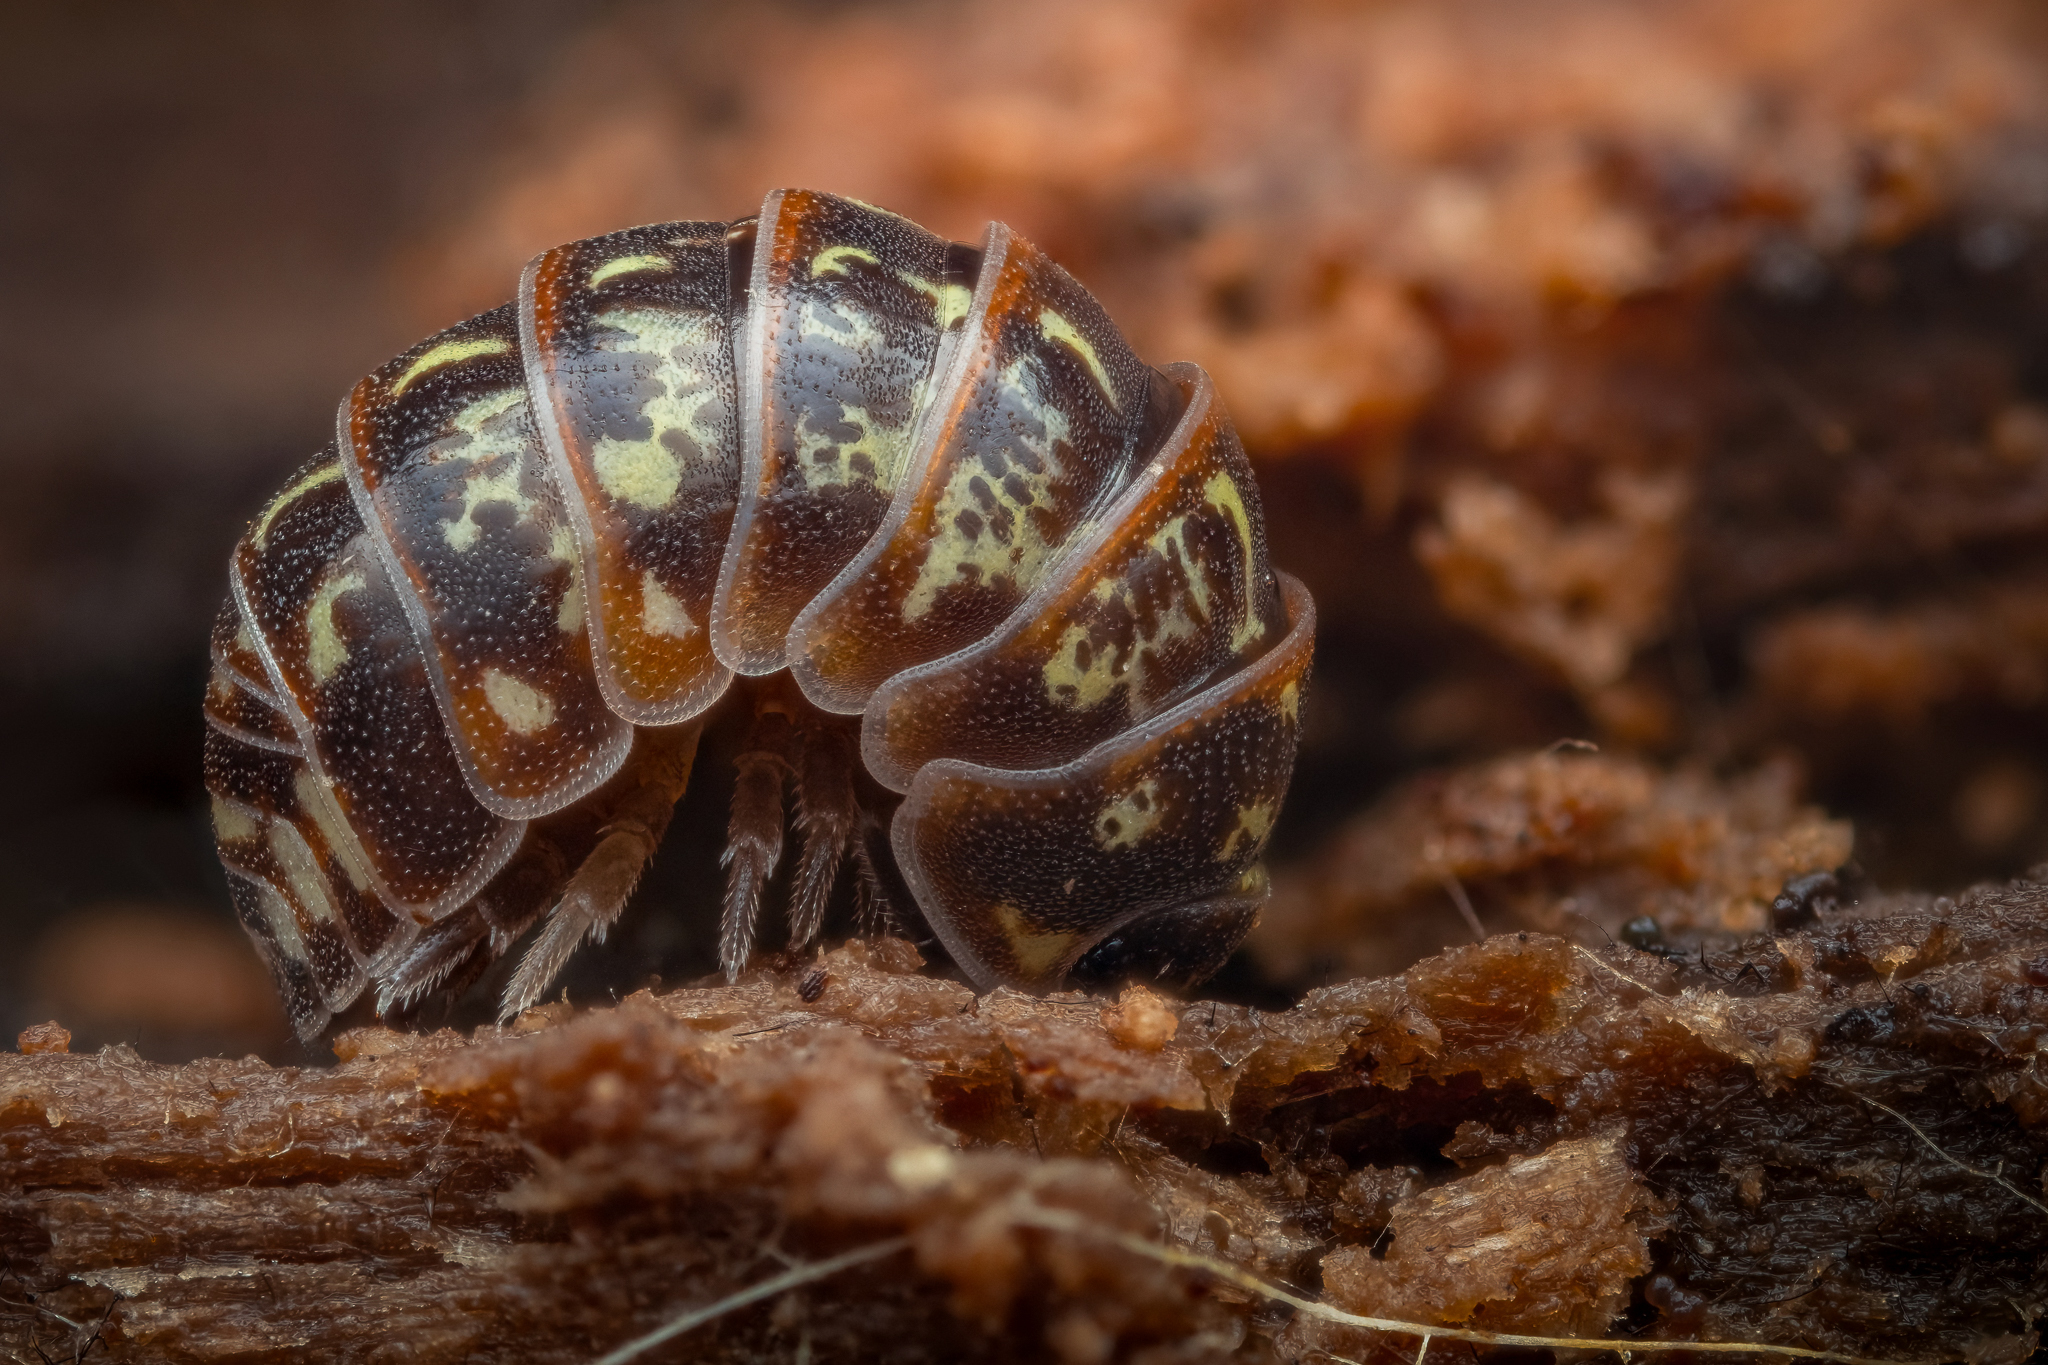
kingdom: Animalia
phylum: Arthropoda
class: Malacostraca
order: Isopoda
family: Armadillidiidae
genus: Armadillidium
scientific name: Armadillidium pulchellum
